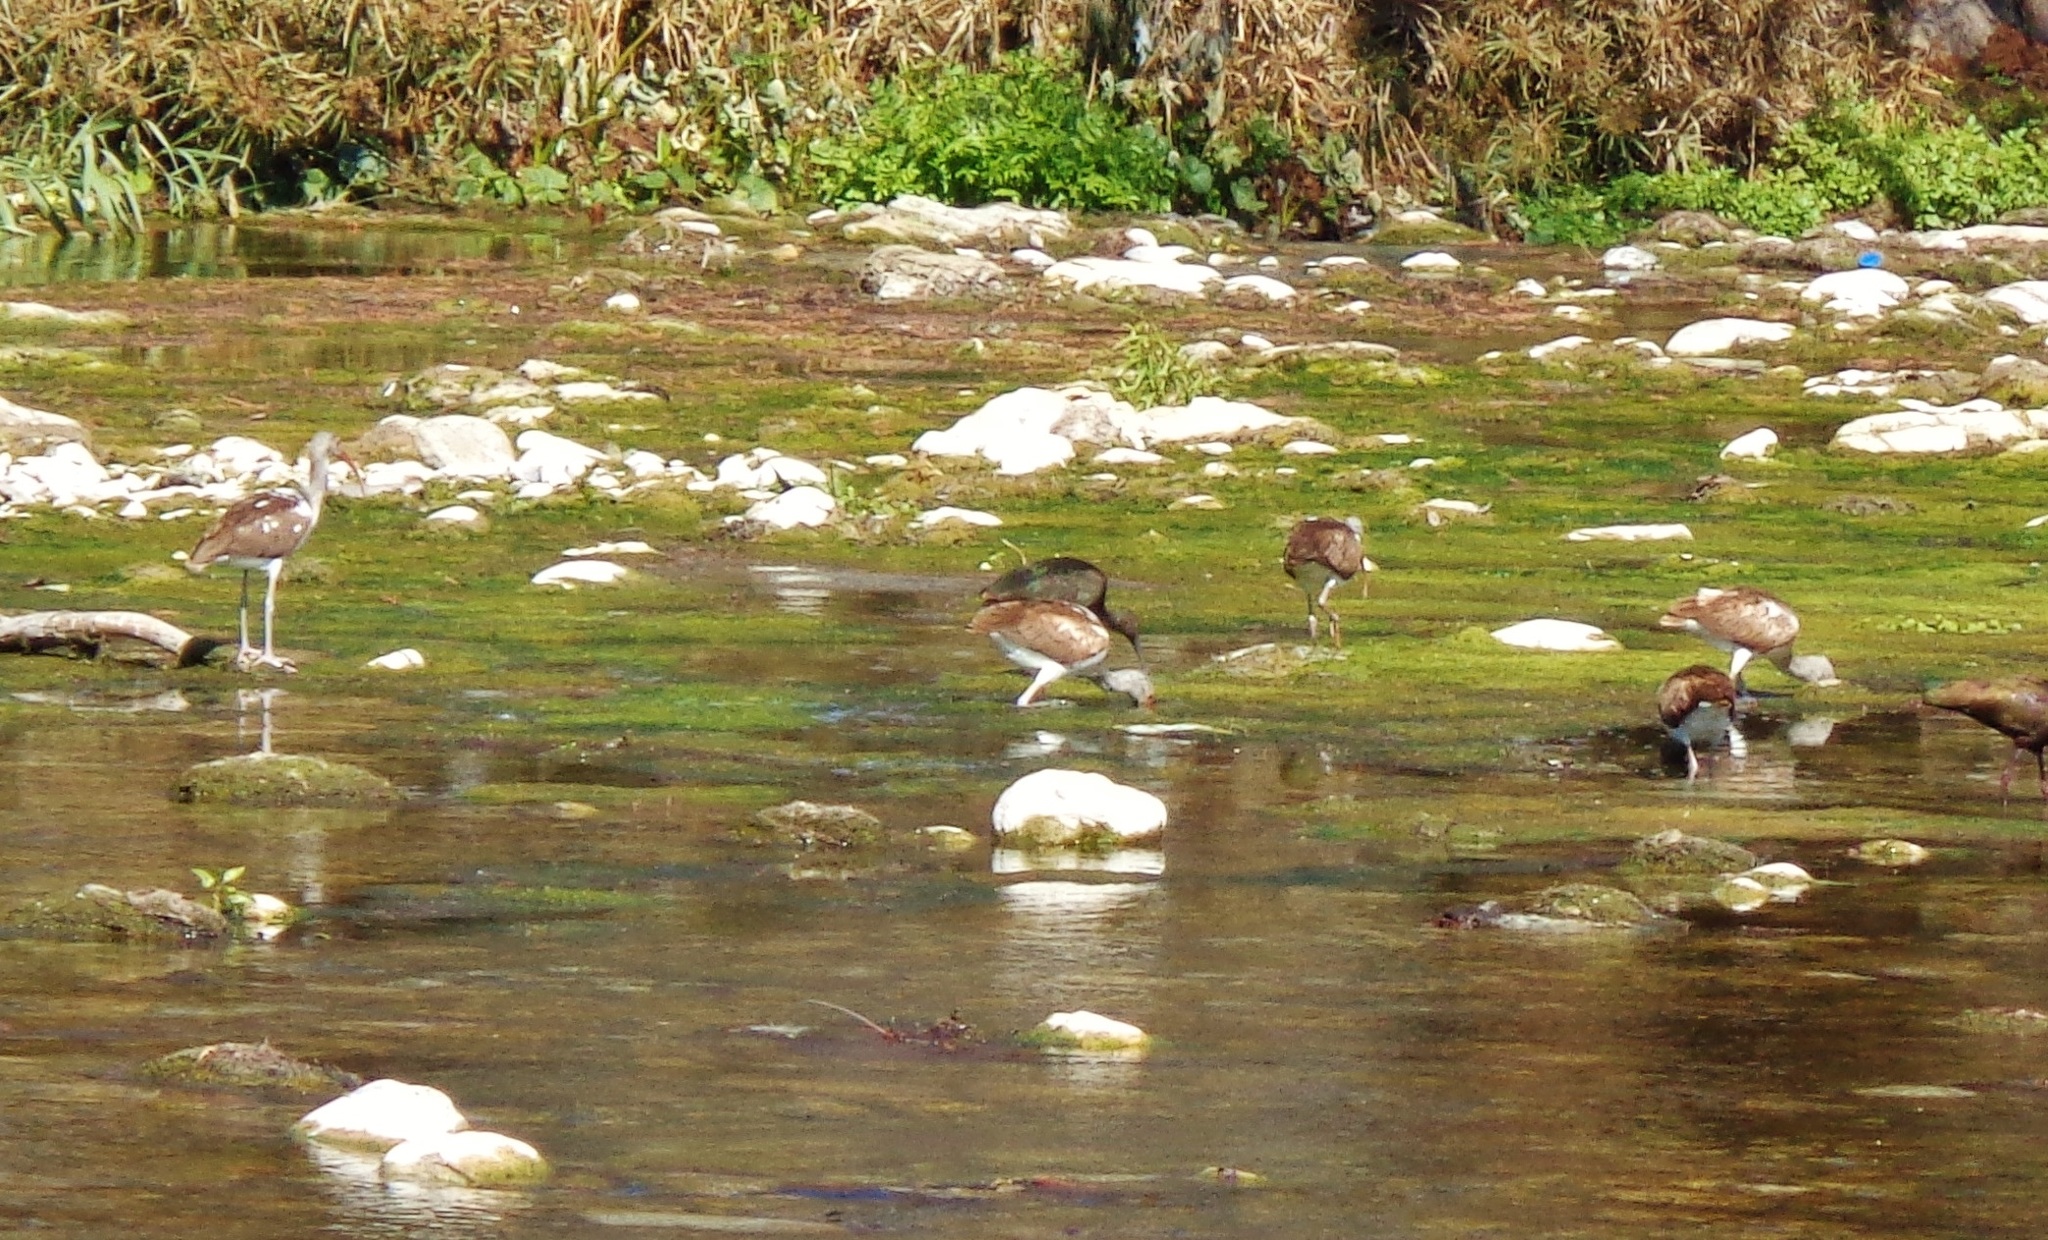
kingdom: Animalia
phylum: Chordata
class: Aves
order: Pelecaniformes
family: Threskiornithidae
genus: Eudocimus
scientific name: Eudocimus albus
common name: White ibis
